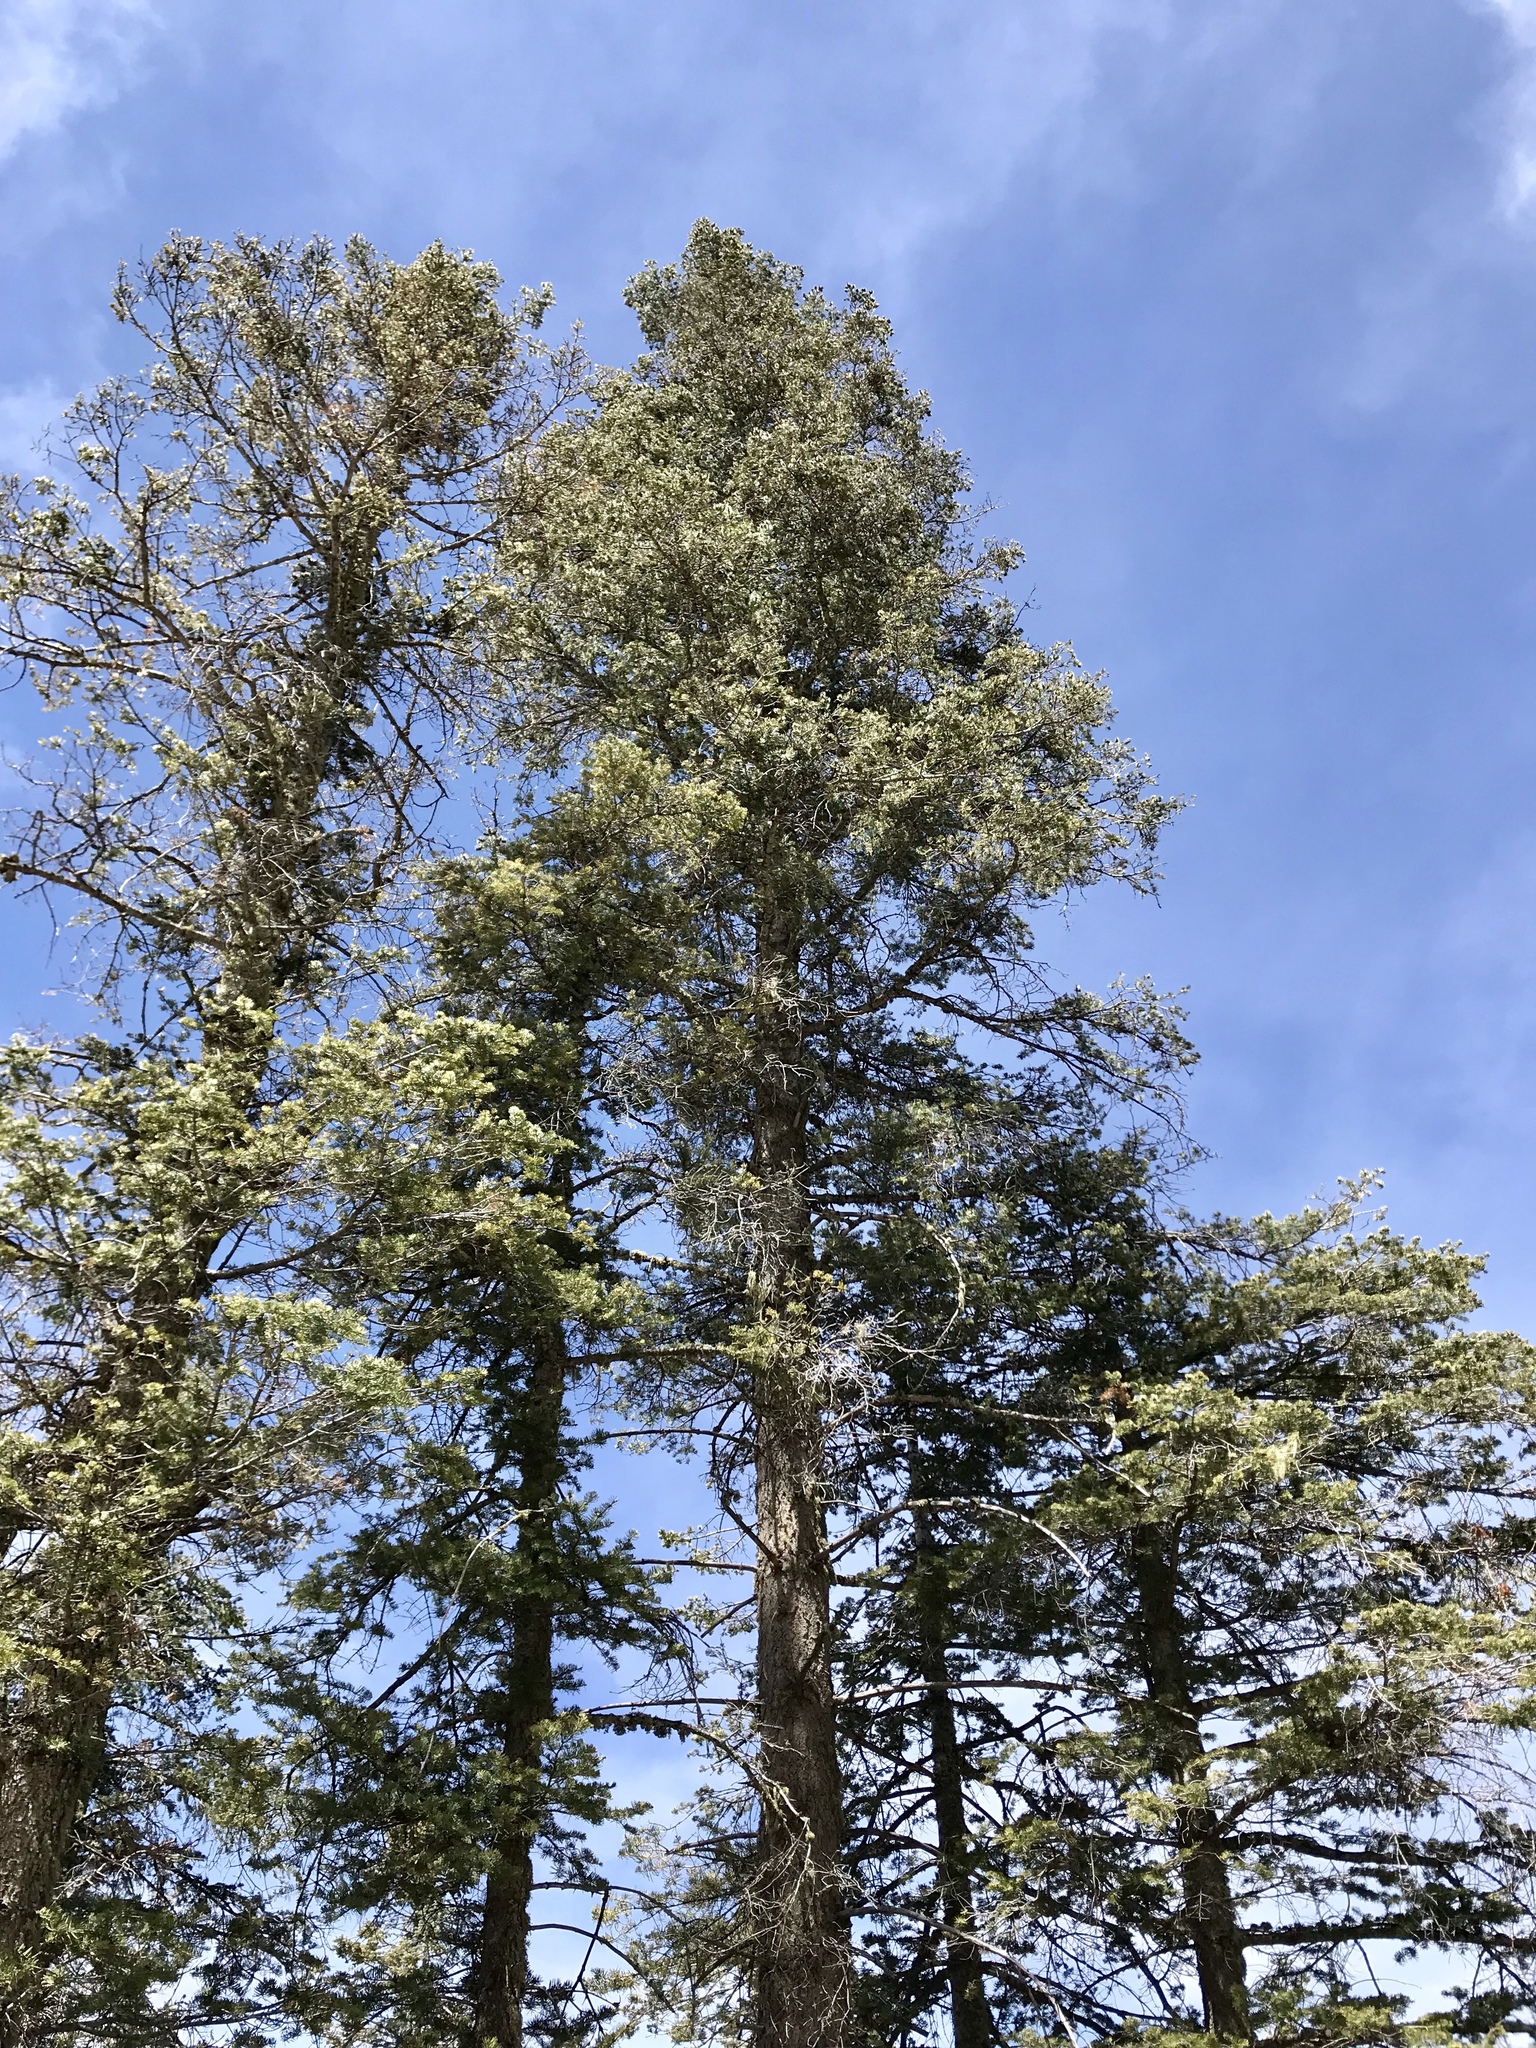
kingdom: Plantae
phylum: Tracheophyta
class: Pinopsida
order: Pinales
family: Pinaceae
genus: Pseudotsuga
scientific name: Pseudotsuga menziesii
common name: Douglas fir
